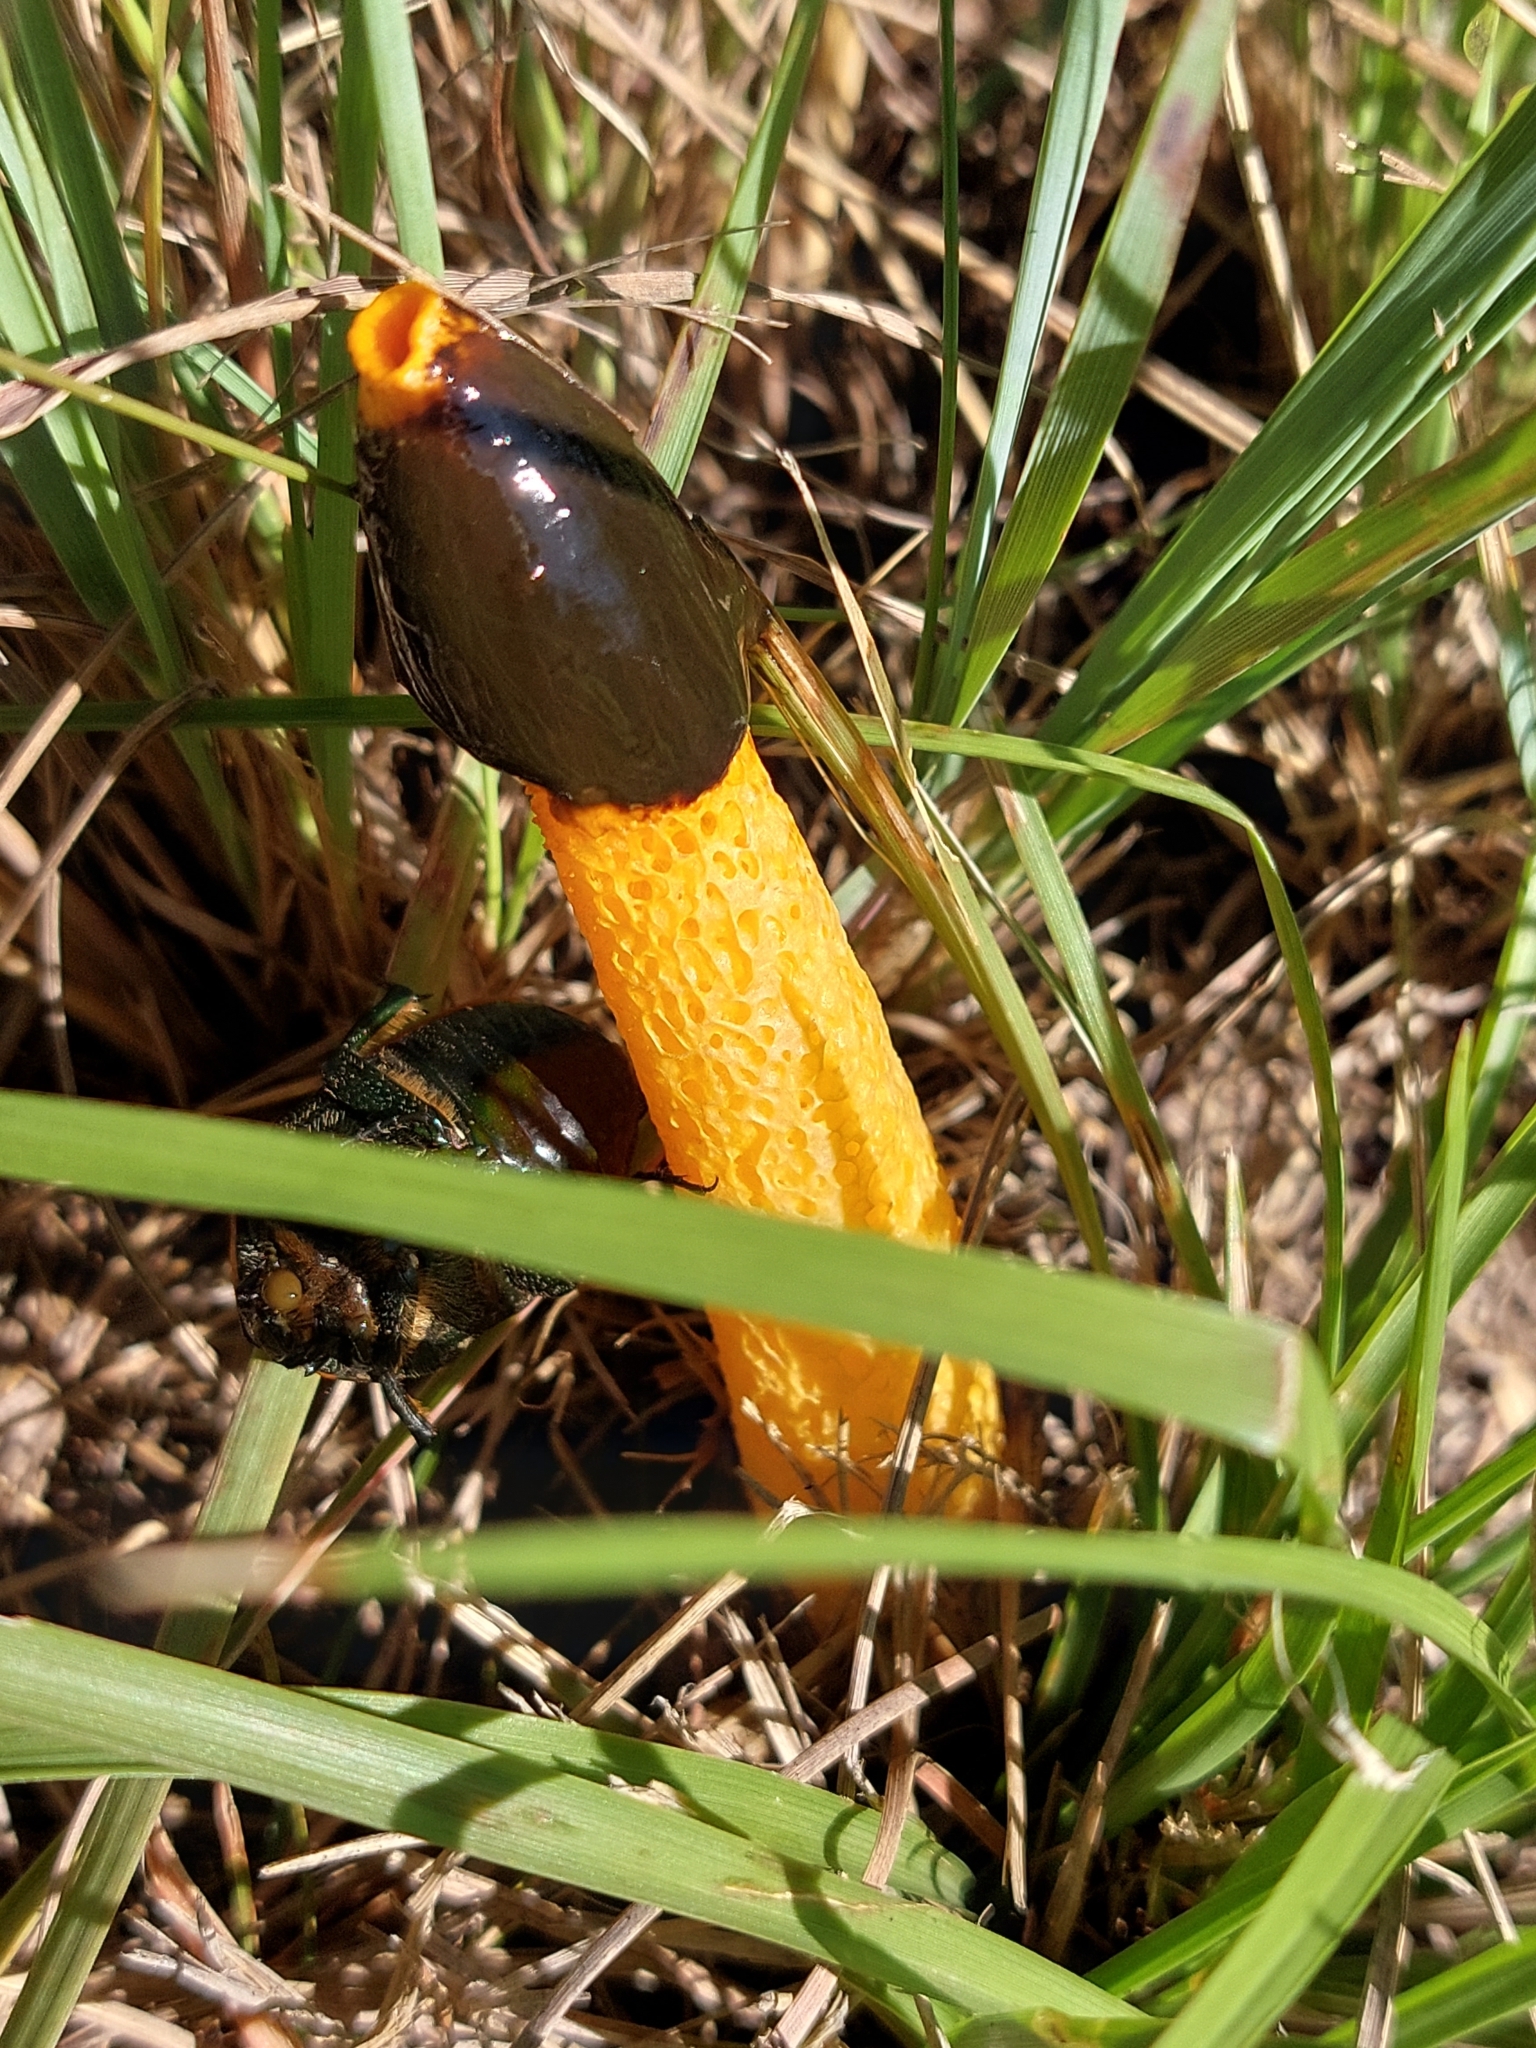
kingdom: Fungi
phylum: Basidiomycota
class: Agaricomycetes
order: Phallales
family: Phallaceae
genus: Phallus
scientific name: Phallus
